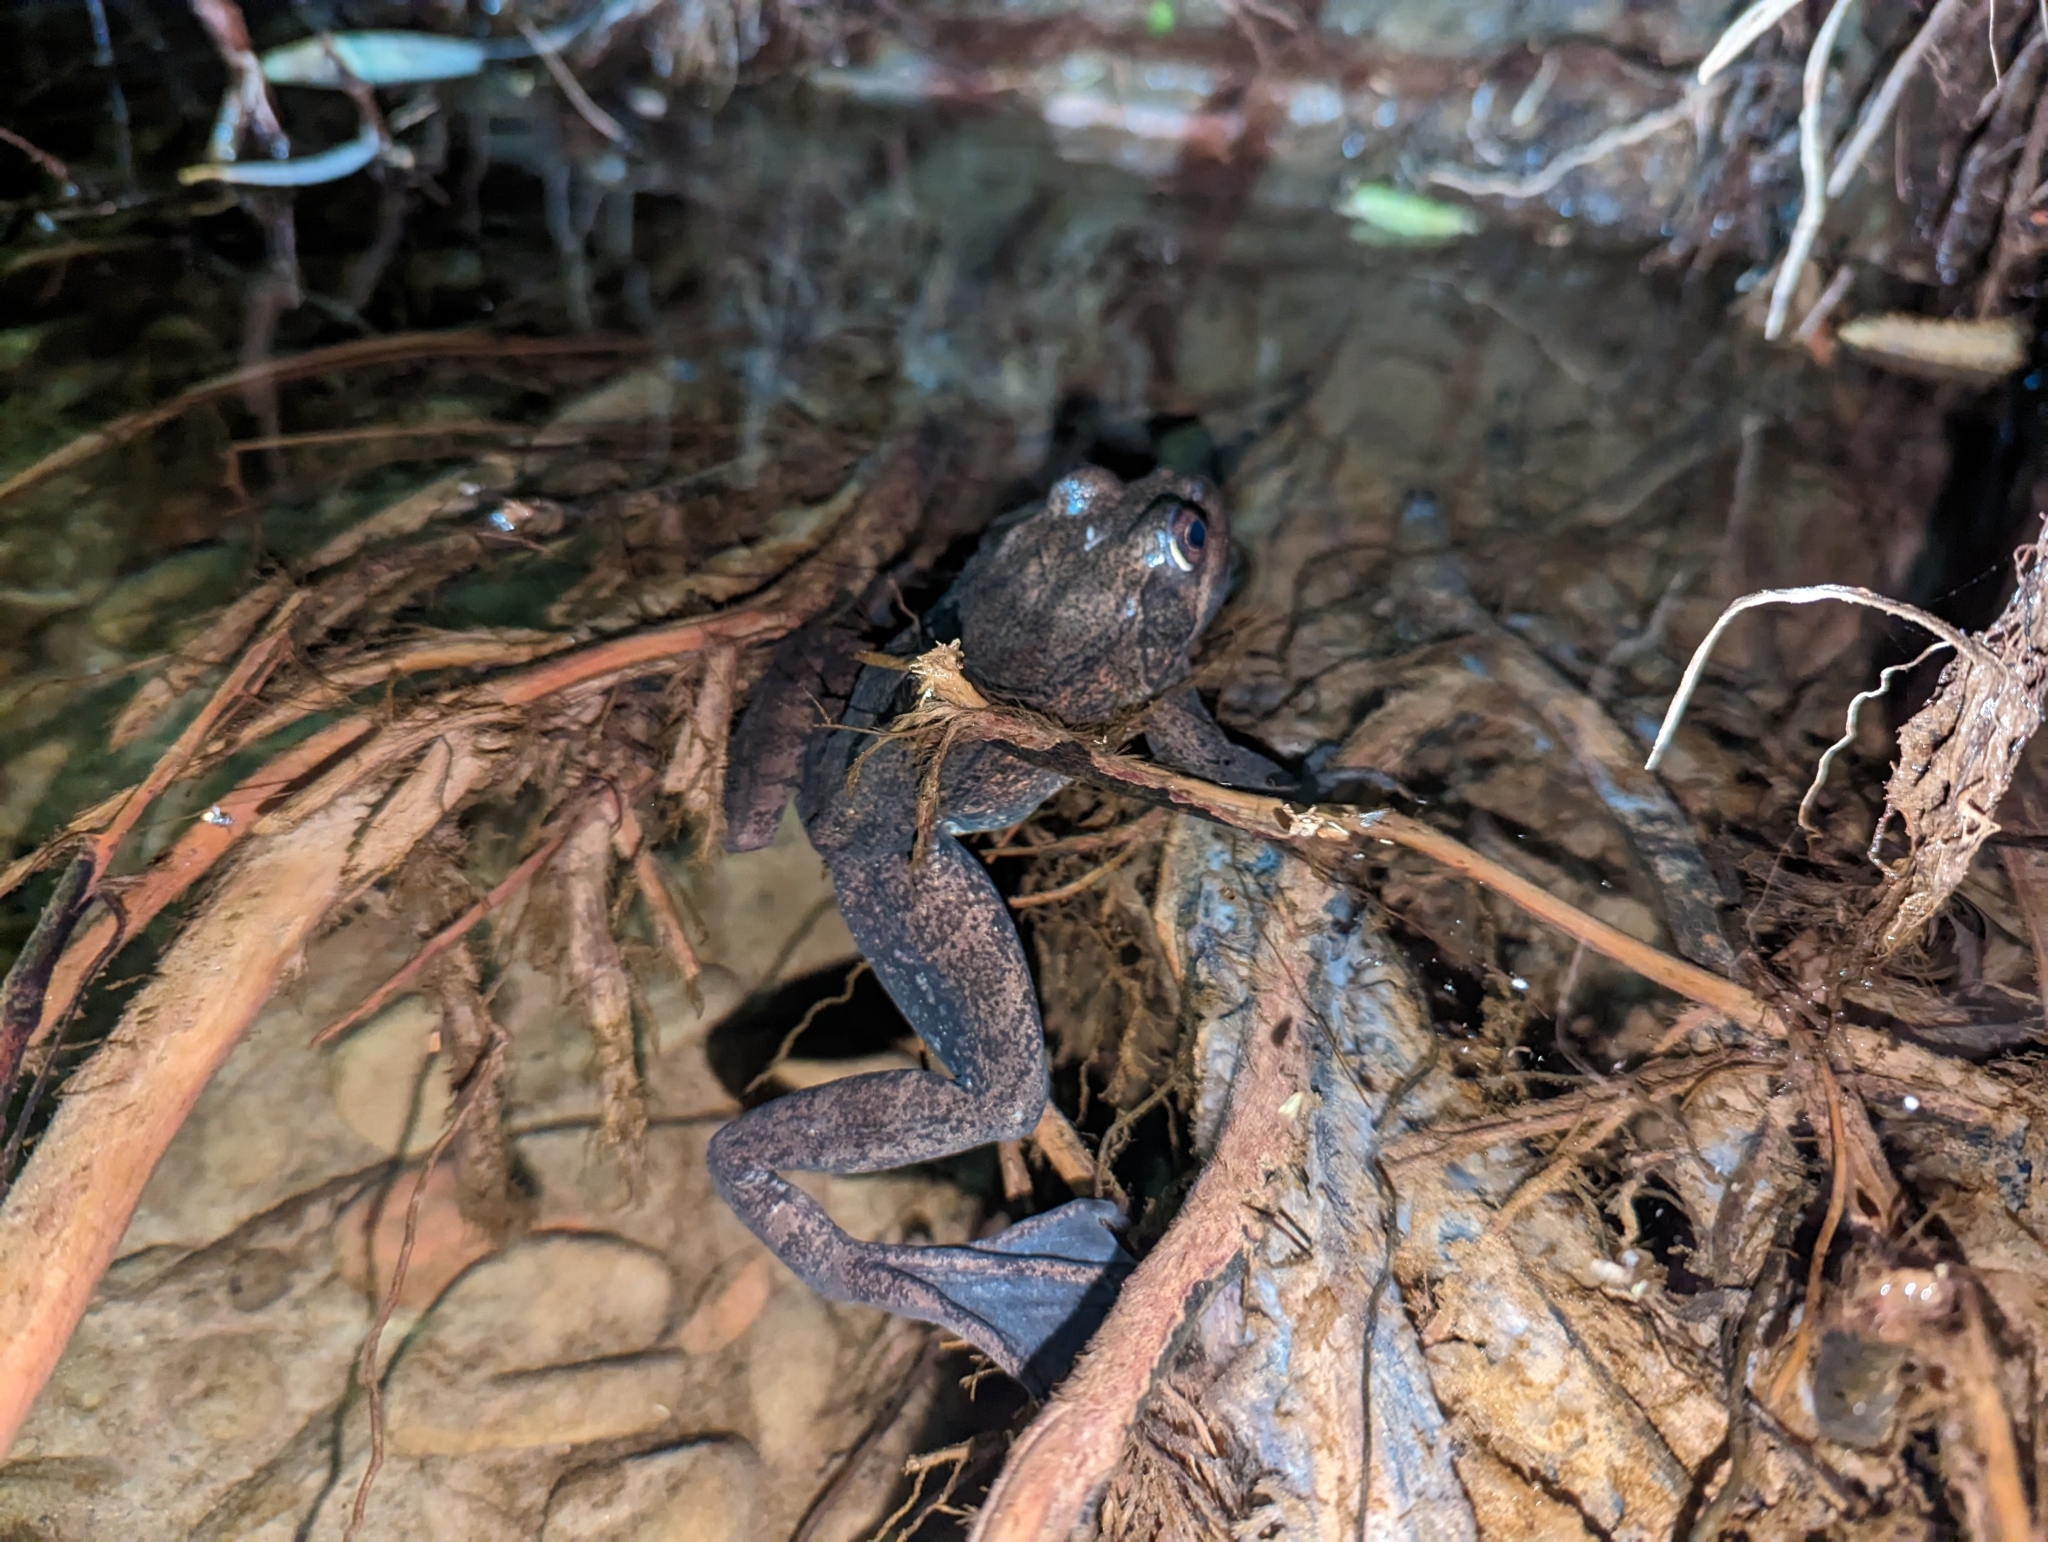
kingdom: Animalia
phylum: Chordata
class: Amphibia
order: Anura
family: Ranidae
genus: Rana
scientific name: Rana draytonii
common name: California red-legged frog
